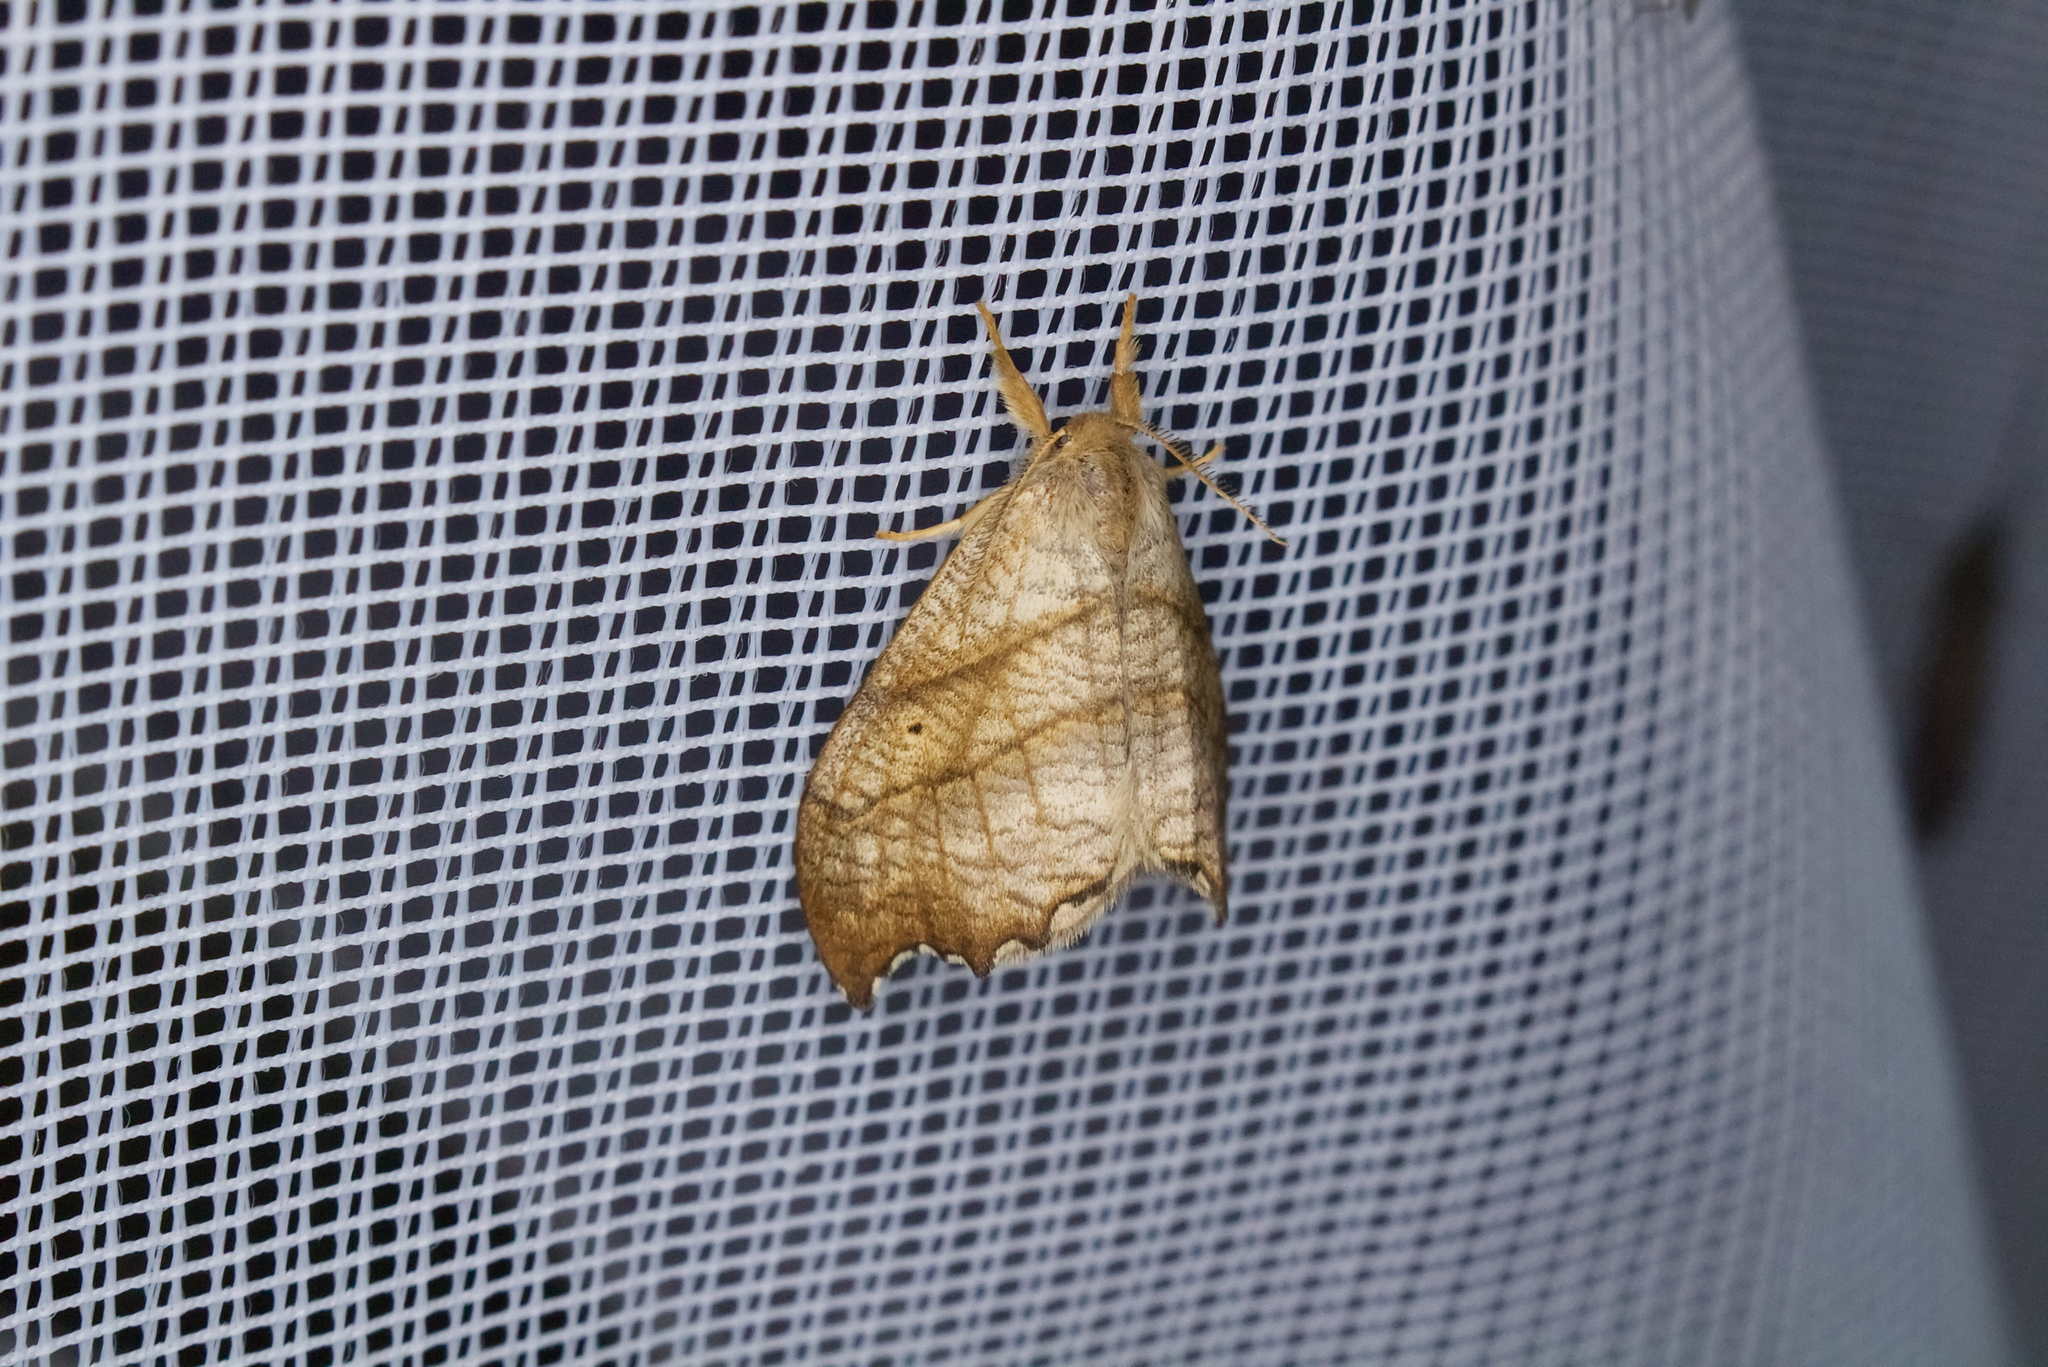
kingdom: Animalia
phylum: Arthropoda
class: Insecta
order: Lepidoptera
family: Drepanidae
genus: Falcaria
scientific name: Falcaria lacertinaria
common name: Scalloped hook-tip
